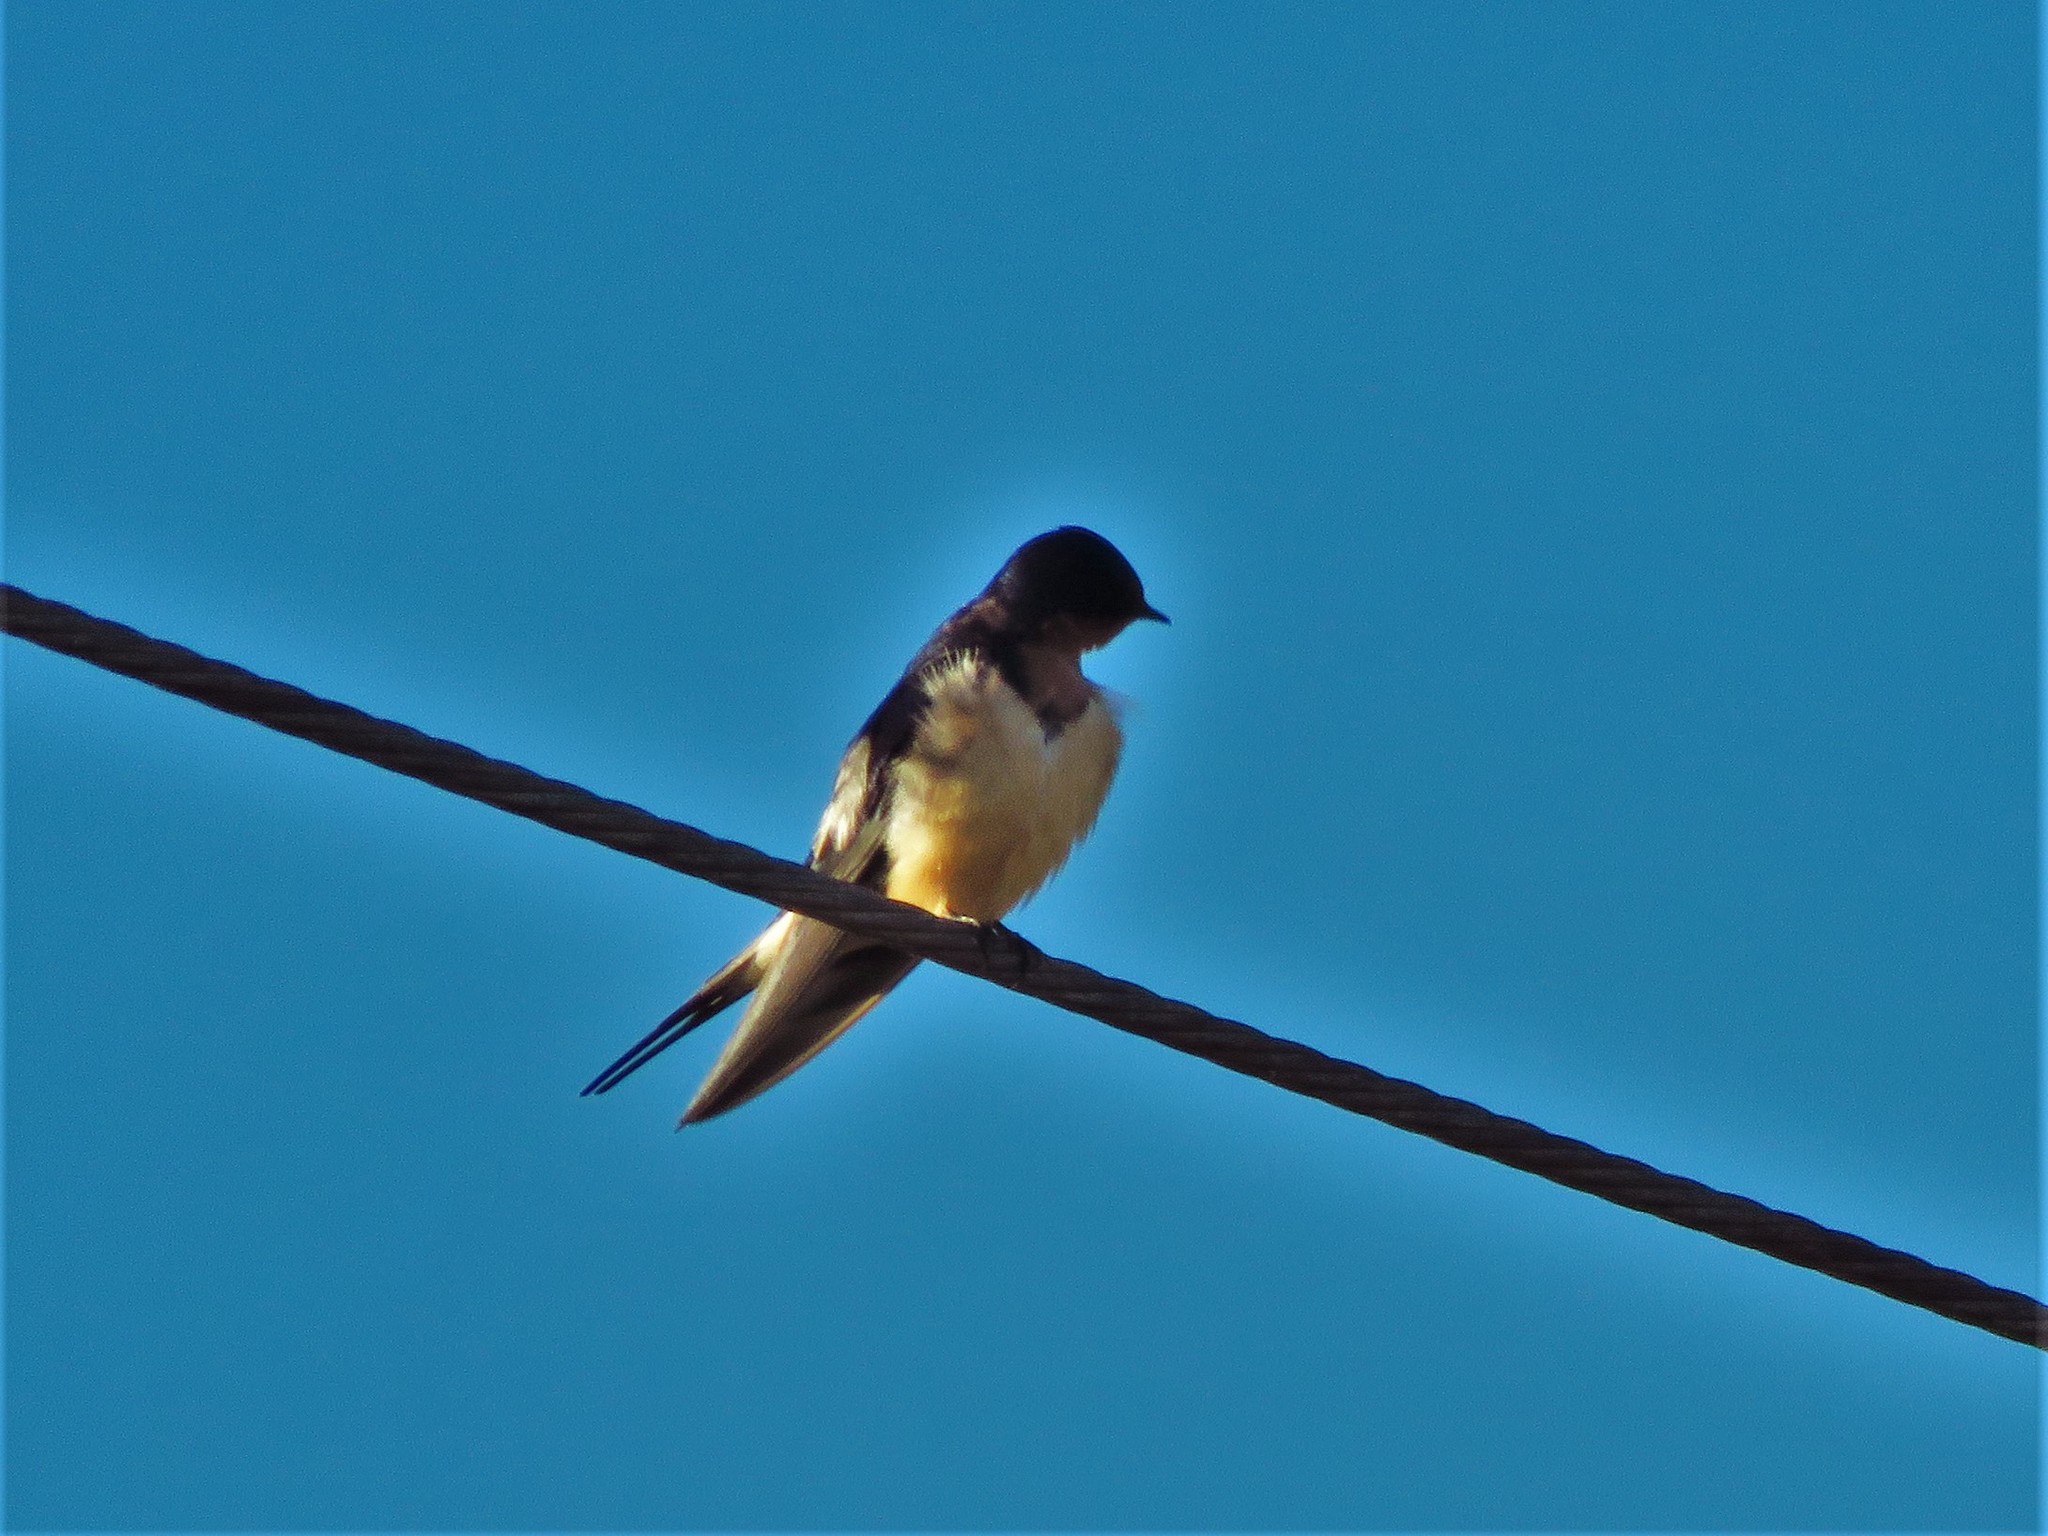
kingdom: Animalia
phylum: Chordata
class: Aves
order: Passeriformes
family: Hirundinidae
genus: Hirundo
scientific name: Hirundo rustica
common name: Barn swallow
